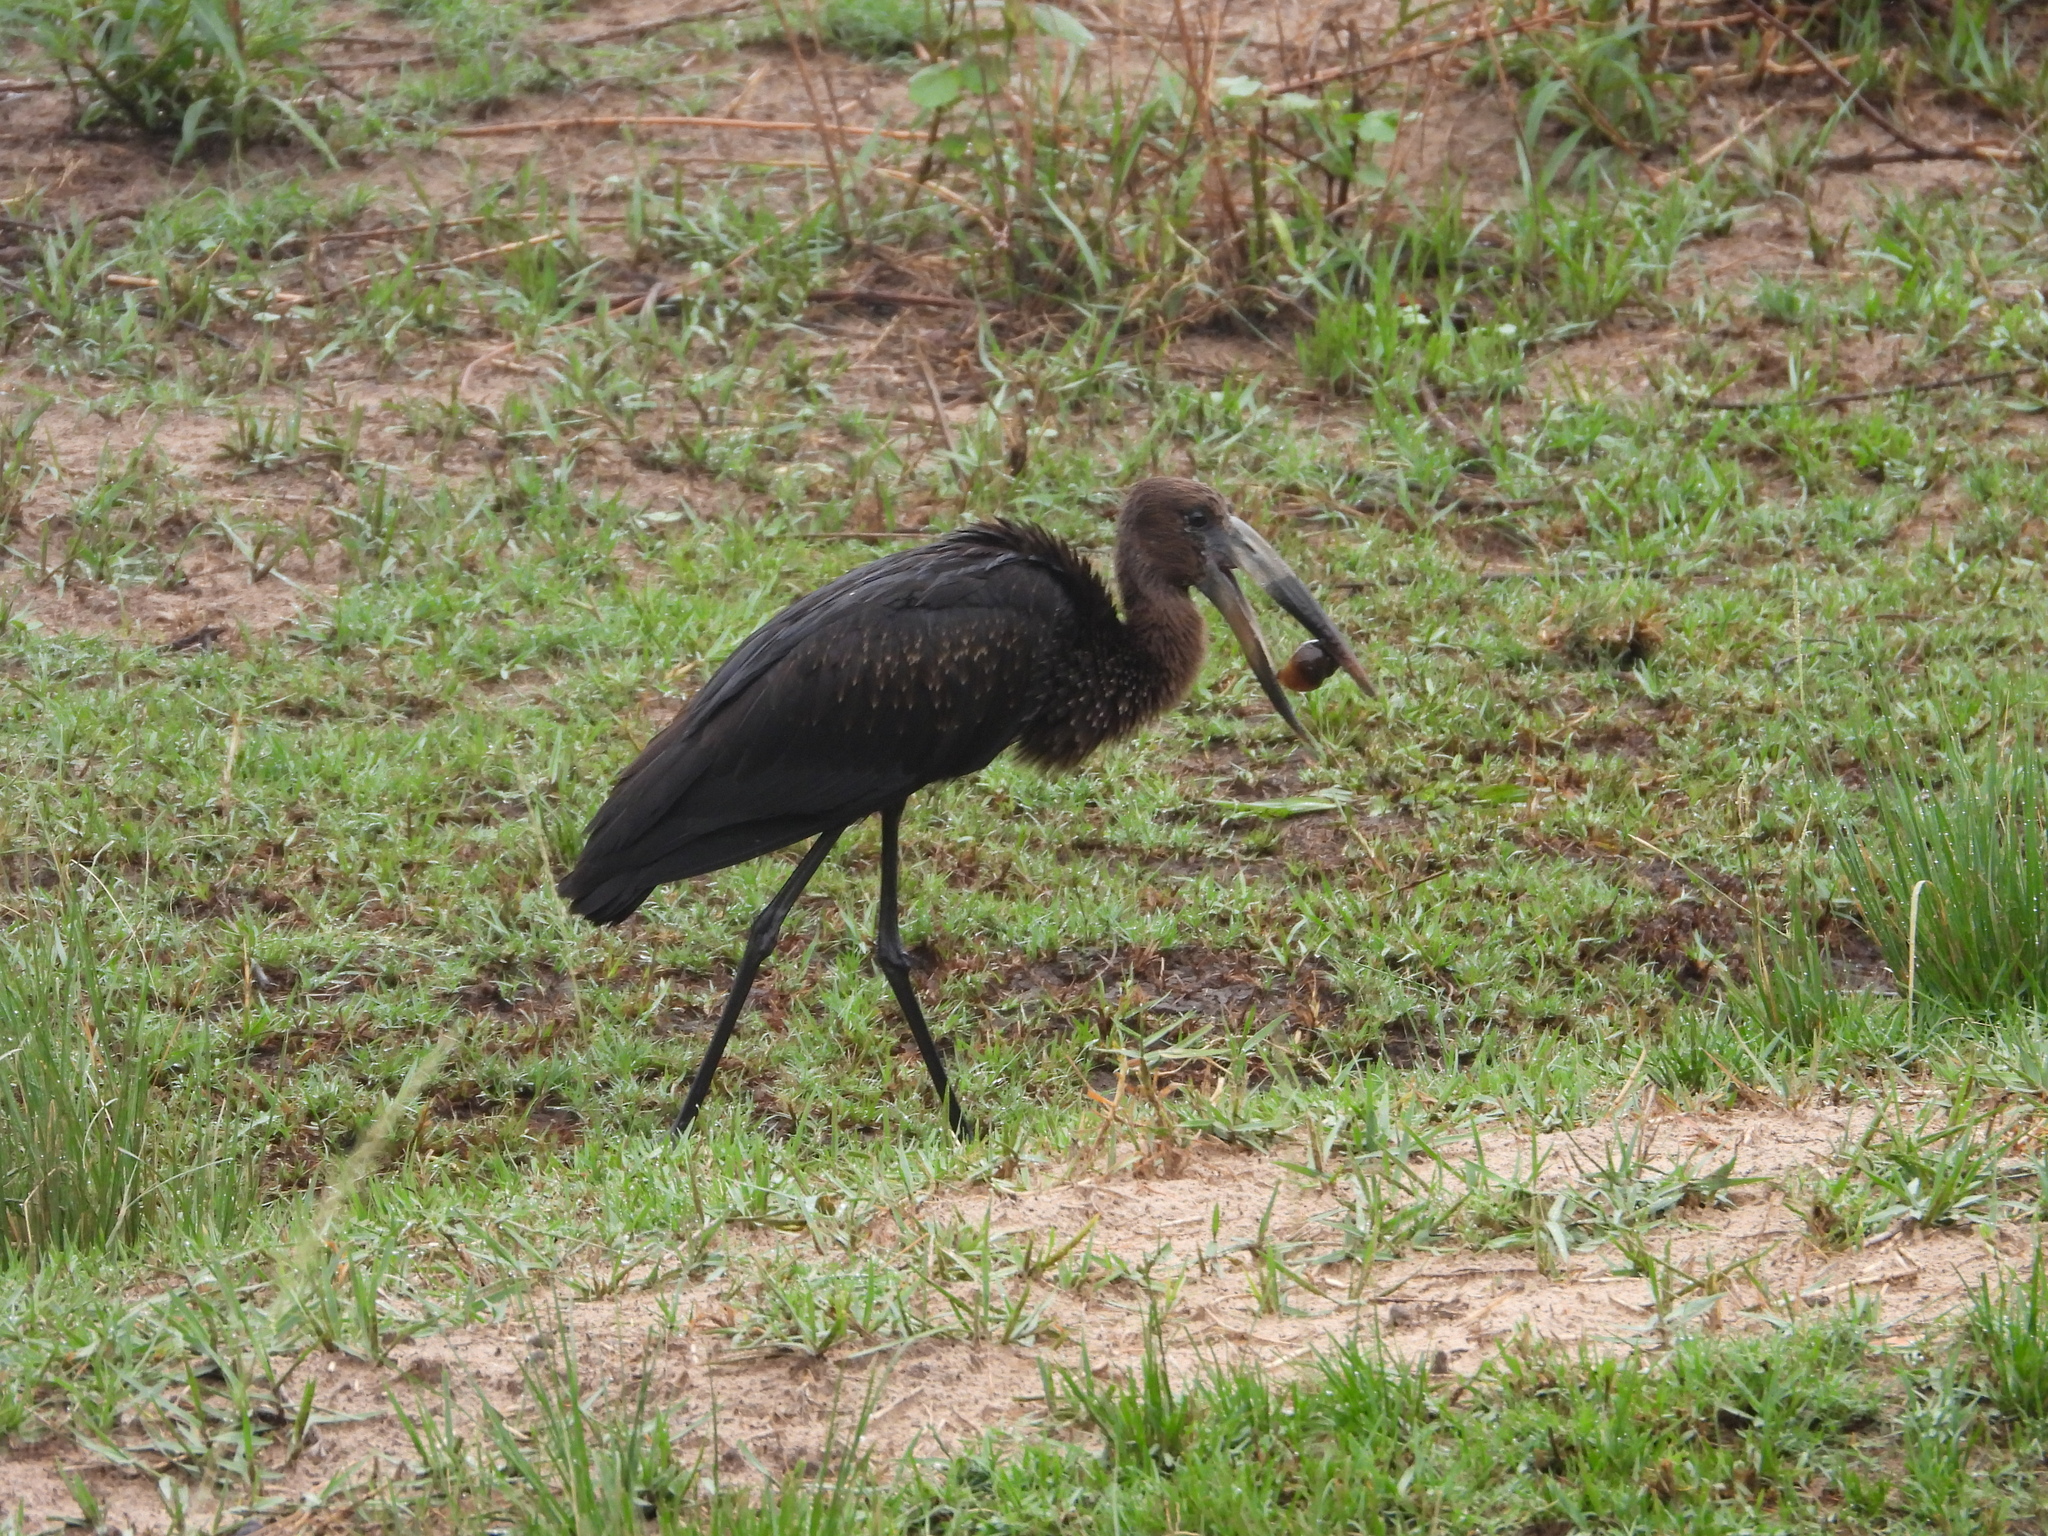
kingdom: Animalia
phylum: Chordata
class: Aves
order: Ciconiiformes
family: Ciconiidae
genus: Anastomus
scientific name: Anastomus lamelligerus
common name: African openbill
